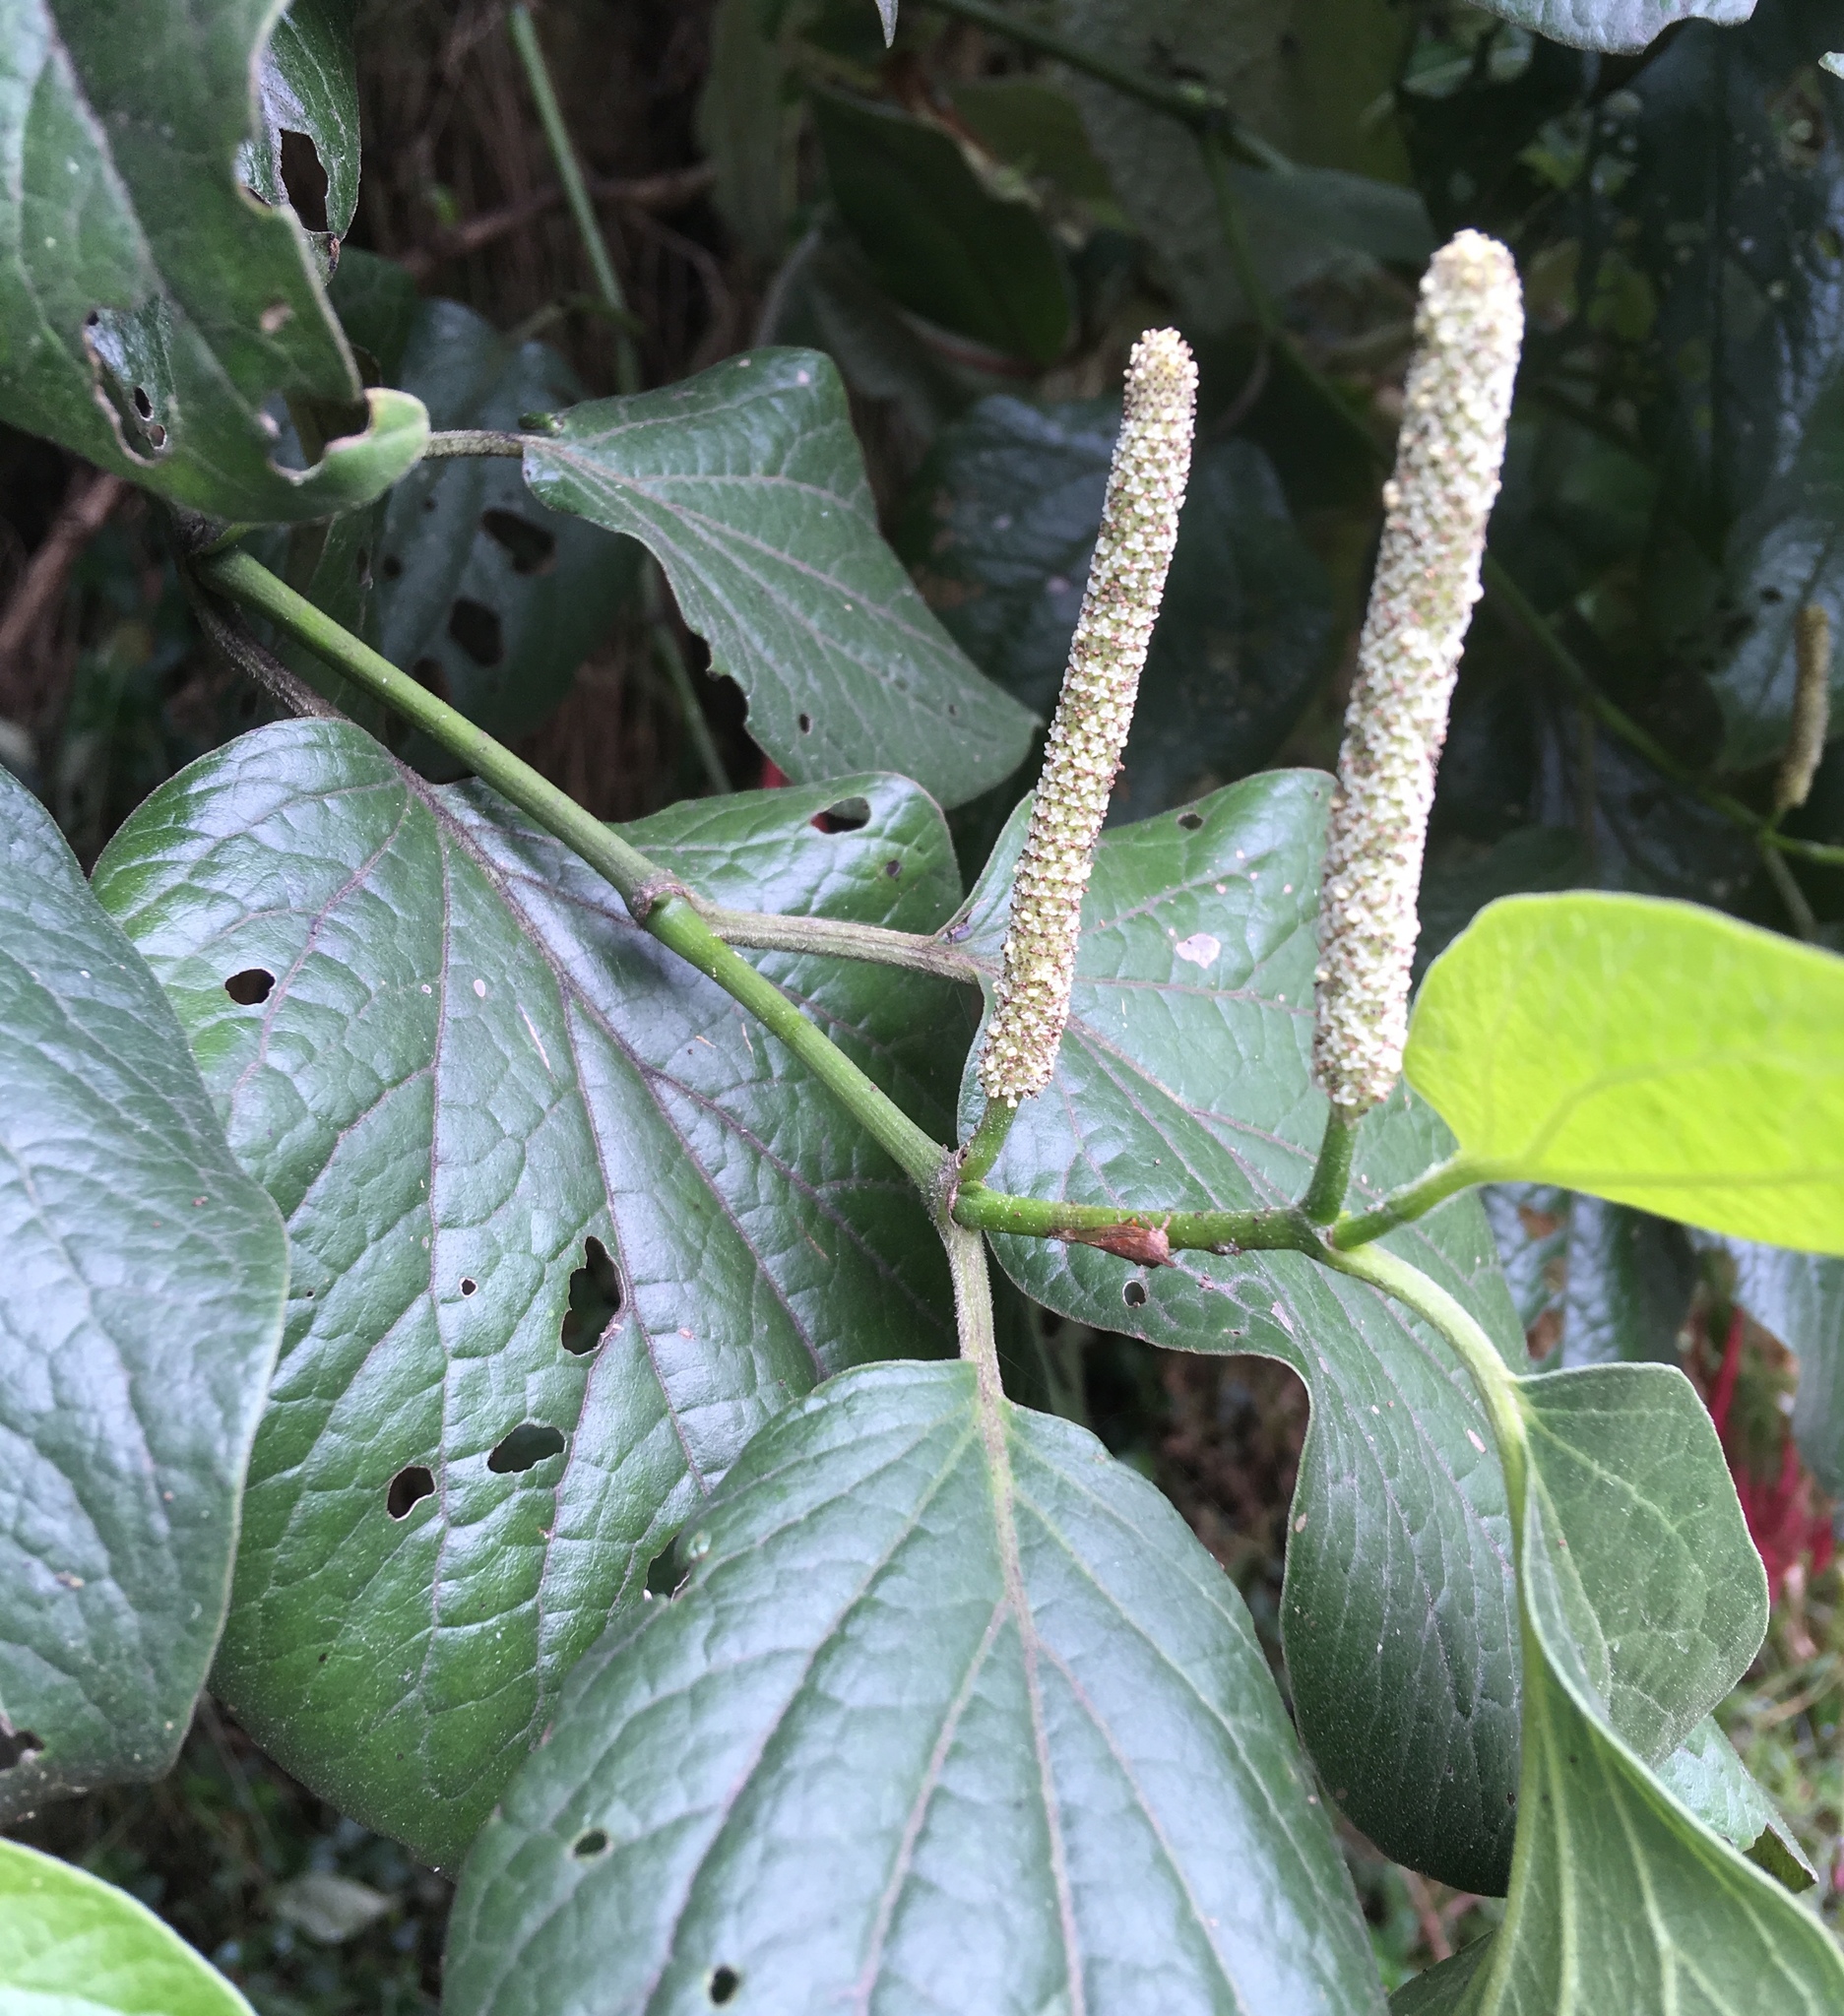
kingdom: Plantae
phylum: Tracheophyta
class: Magnoliopsida
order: Piperales
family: Piperaceae
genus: Piper
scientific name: Piper barbatum
